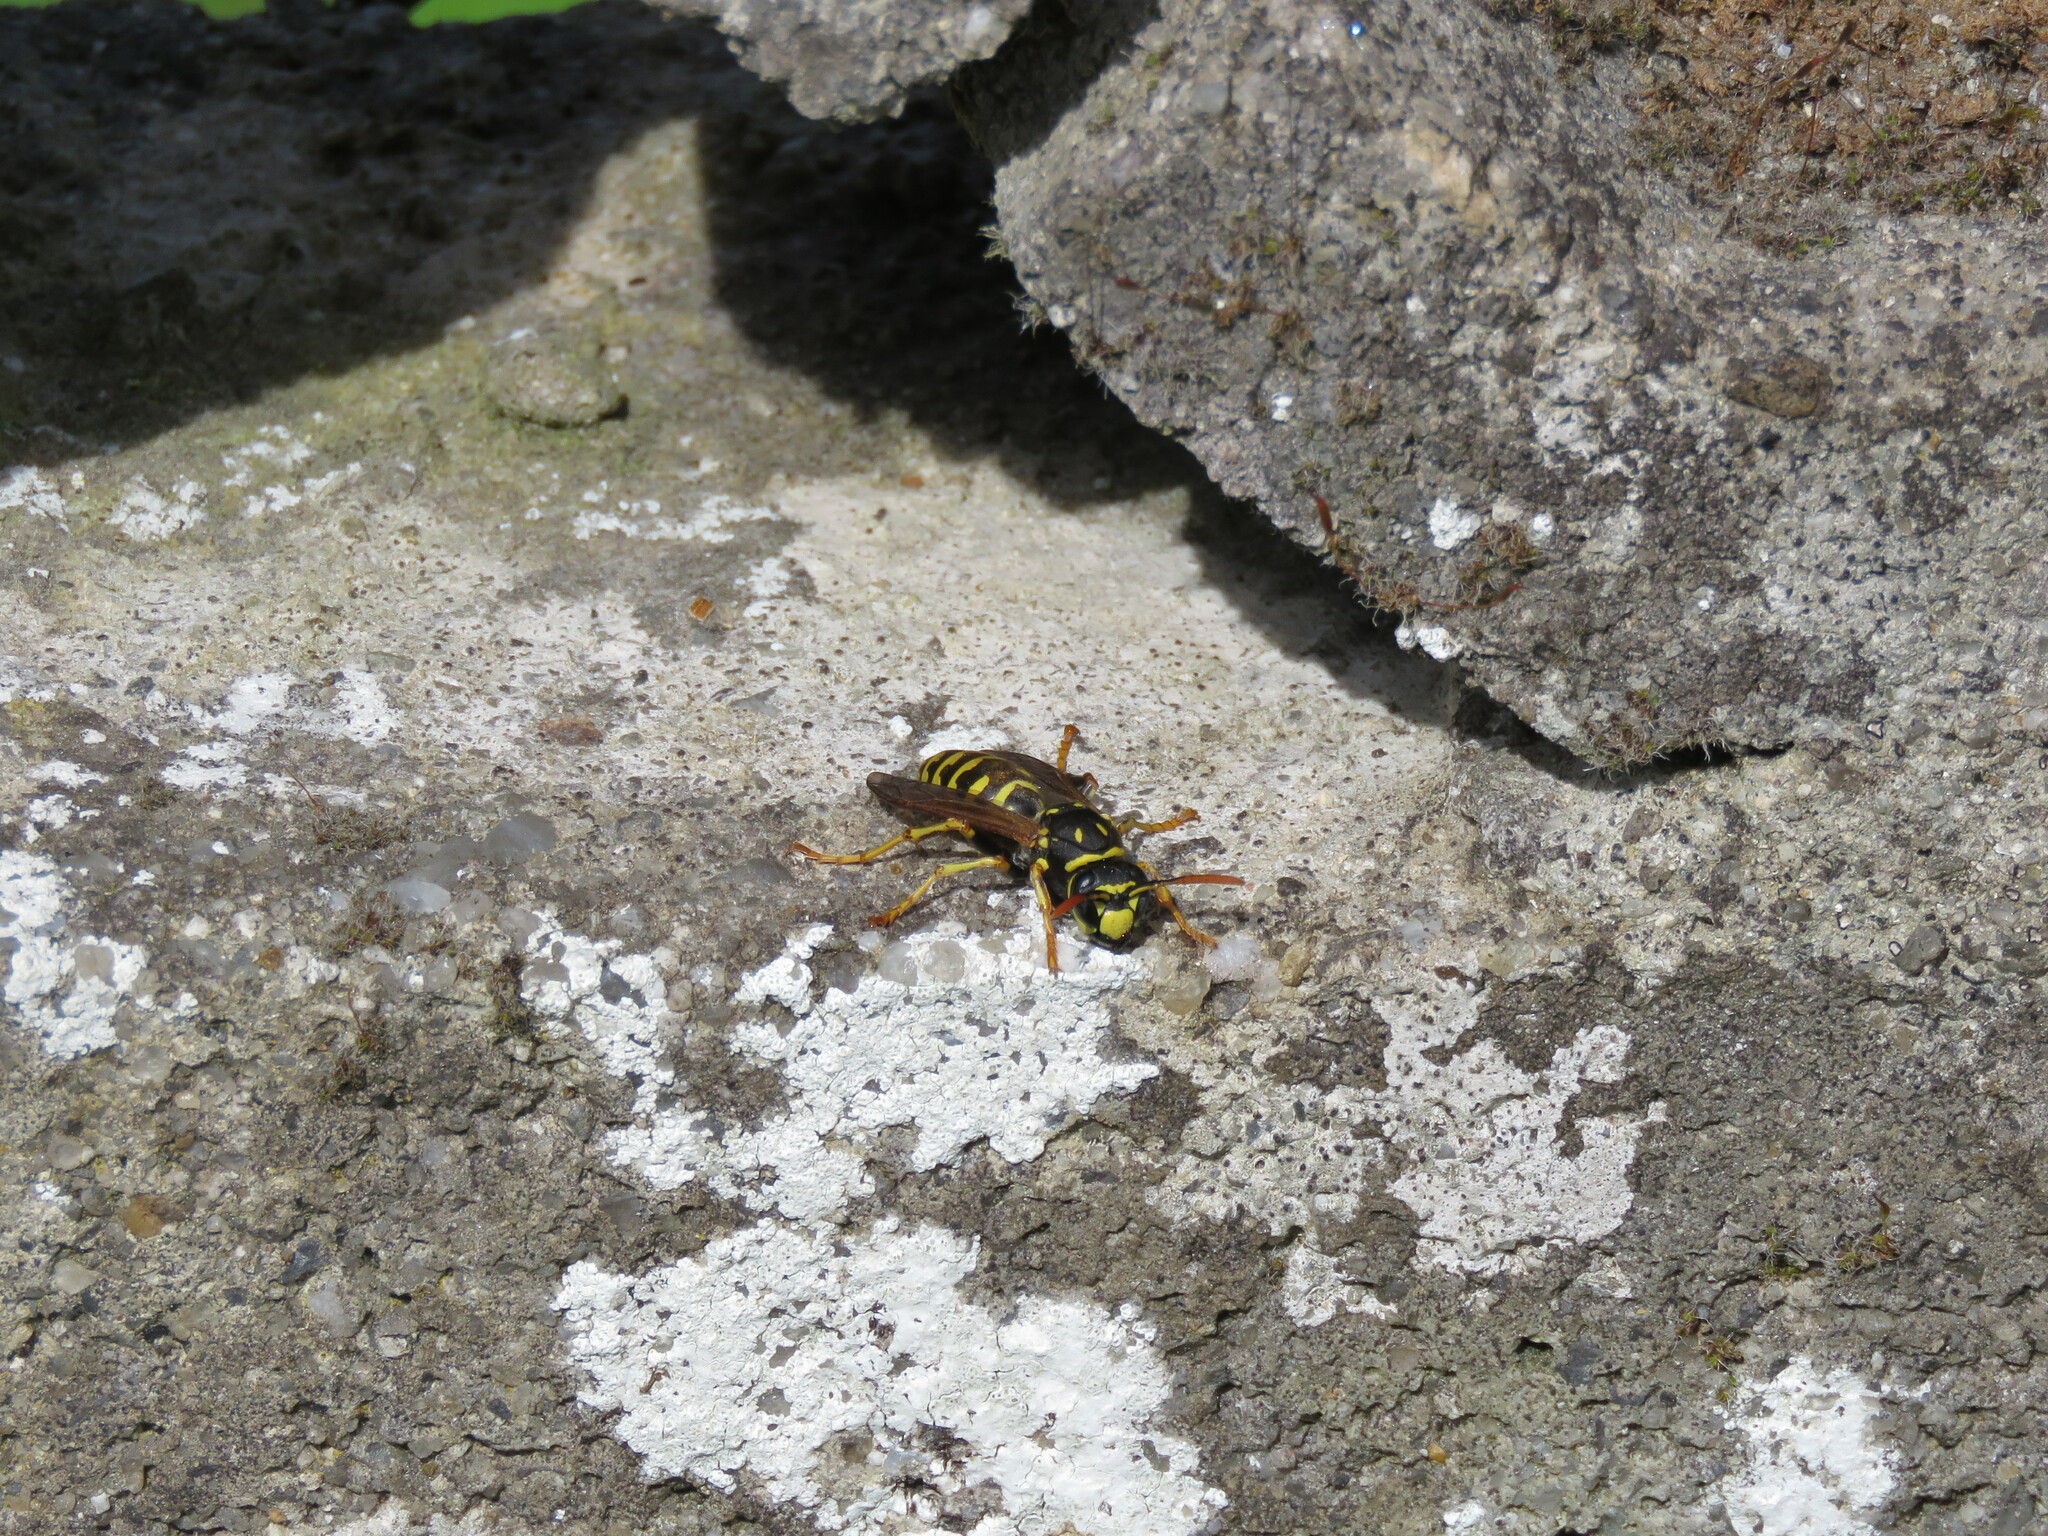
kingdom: Animalia
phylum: Arthropoda
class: Insecta
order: Hymenoptera
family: Eumenidae
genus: Polistes
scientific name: Polistes dominula
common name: Paper wasp
